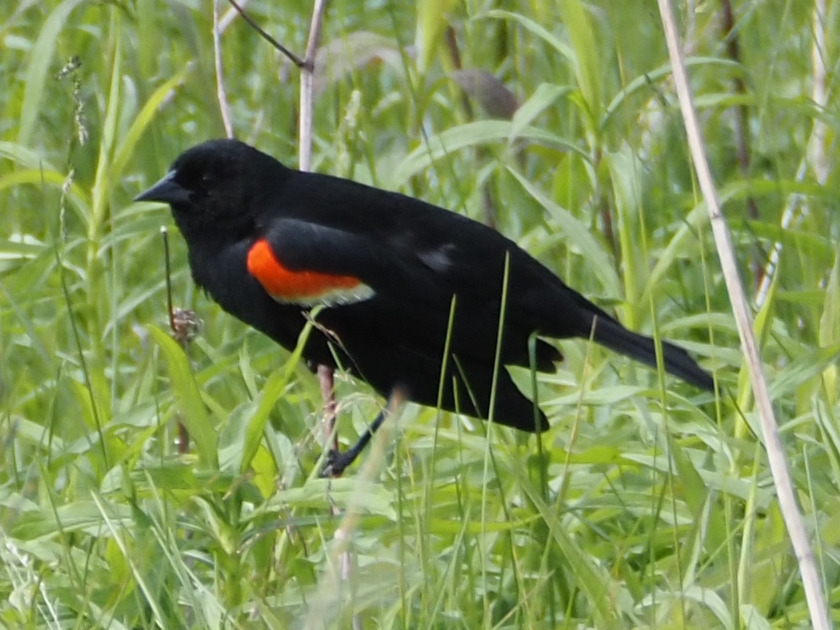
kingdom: Animalia
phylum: Chordata
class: Aves
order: Passeriformes
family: Icteridae
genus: Agelaius
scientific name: Agelaius phoeniceus
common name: Red-winged blackbird
